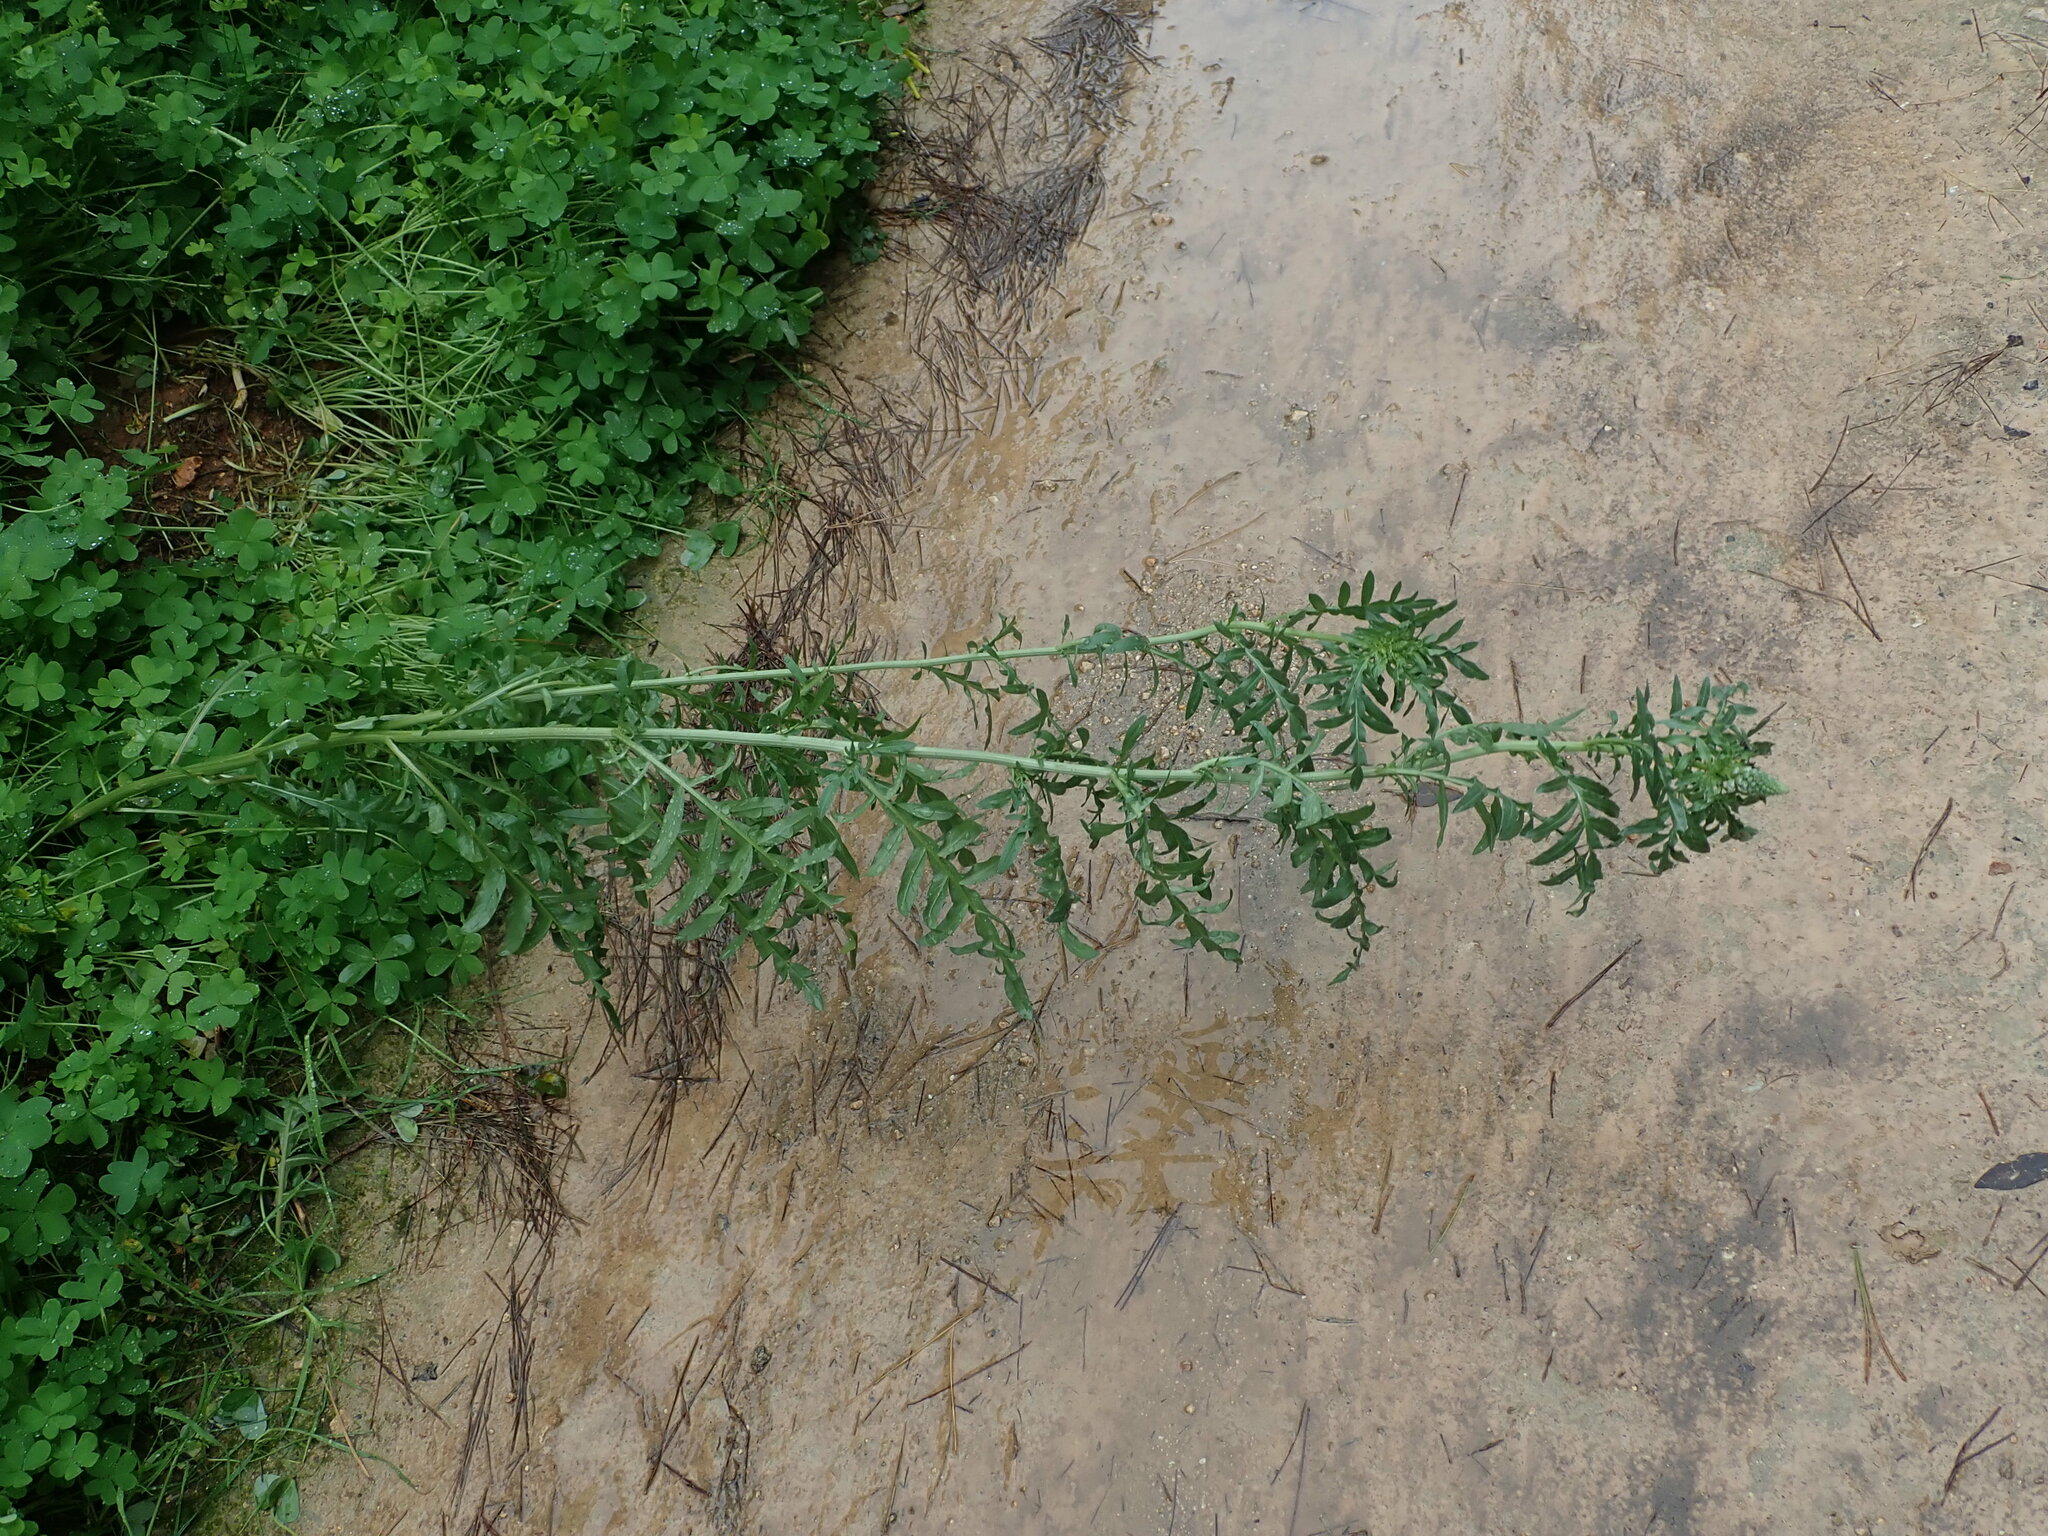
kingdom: Plantae
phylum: Tracheophyta
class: Magnoliopsida
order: Brassicales
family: Resedaceae
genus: Reseda
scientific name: Reseda alba
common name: White mignonette
